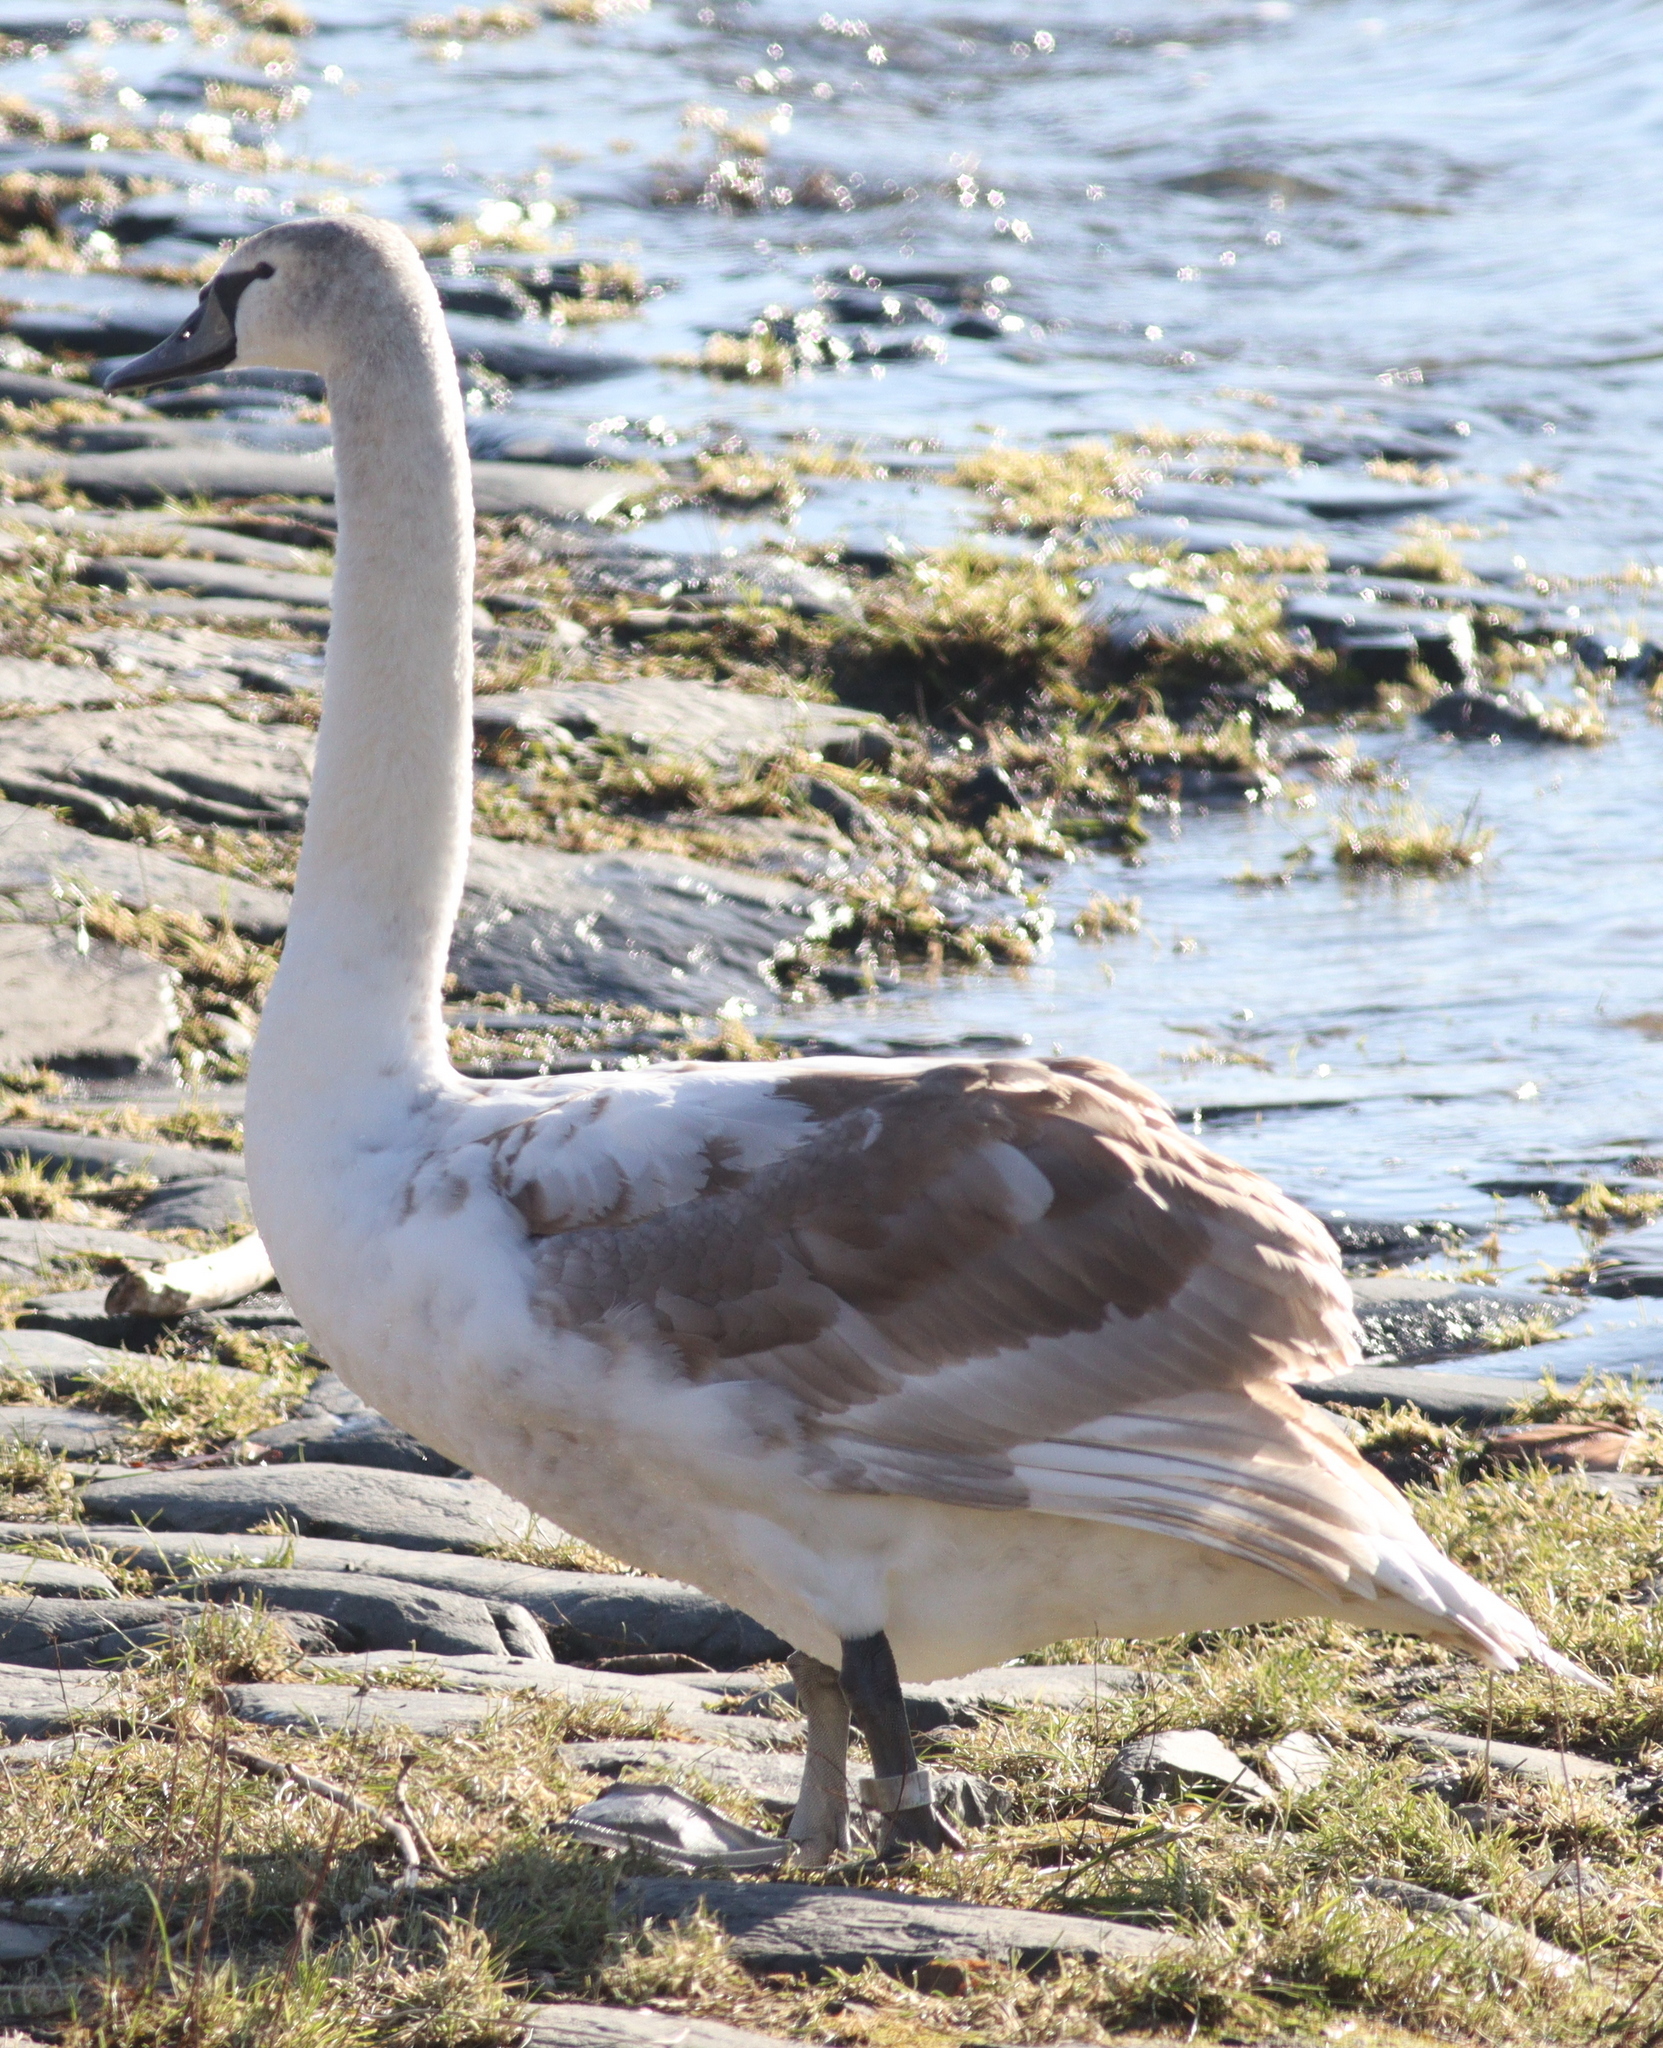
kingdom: Animalia
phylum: Chordata
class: Aves
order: Anseriformes
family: Anatidae
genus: Cygnus
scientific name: Cygnus olor
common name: Mute swan
